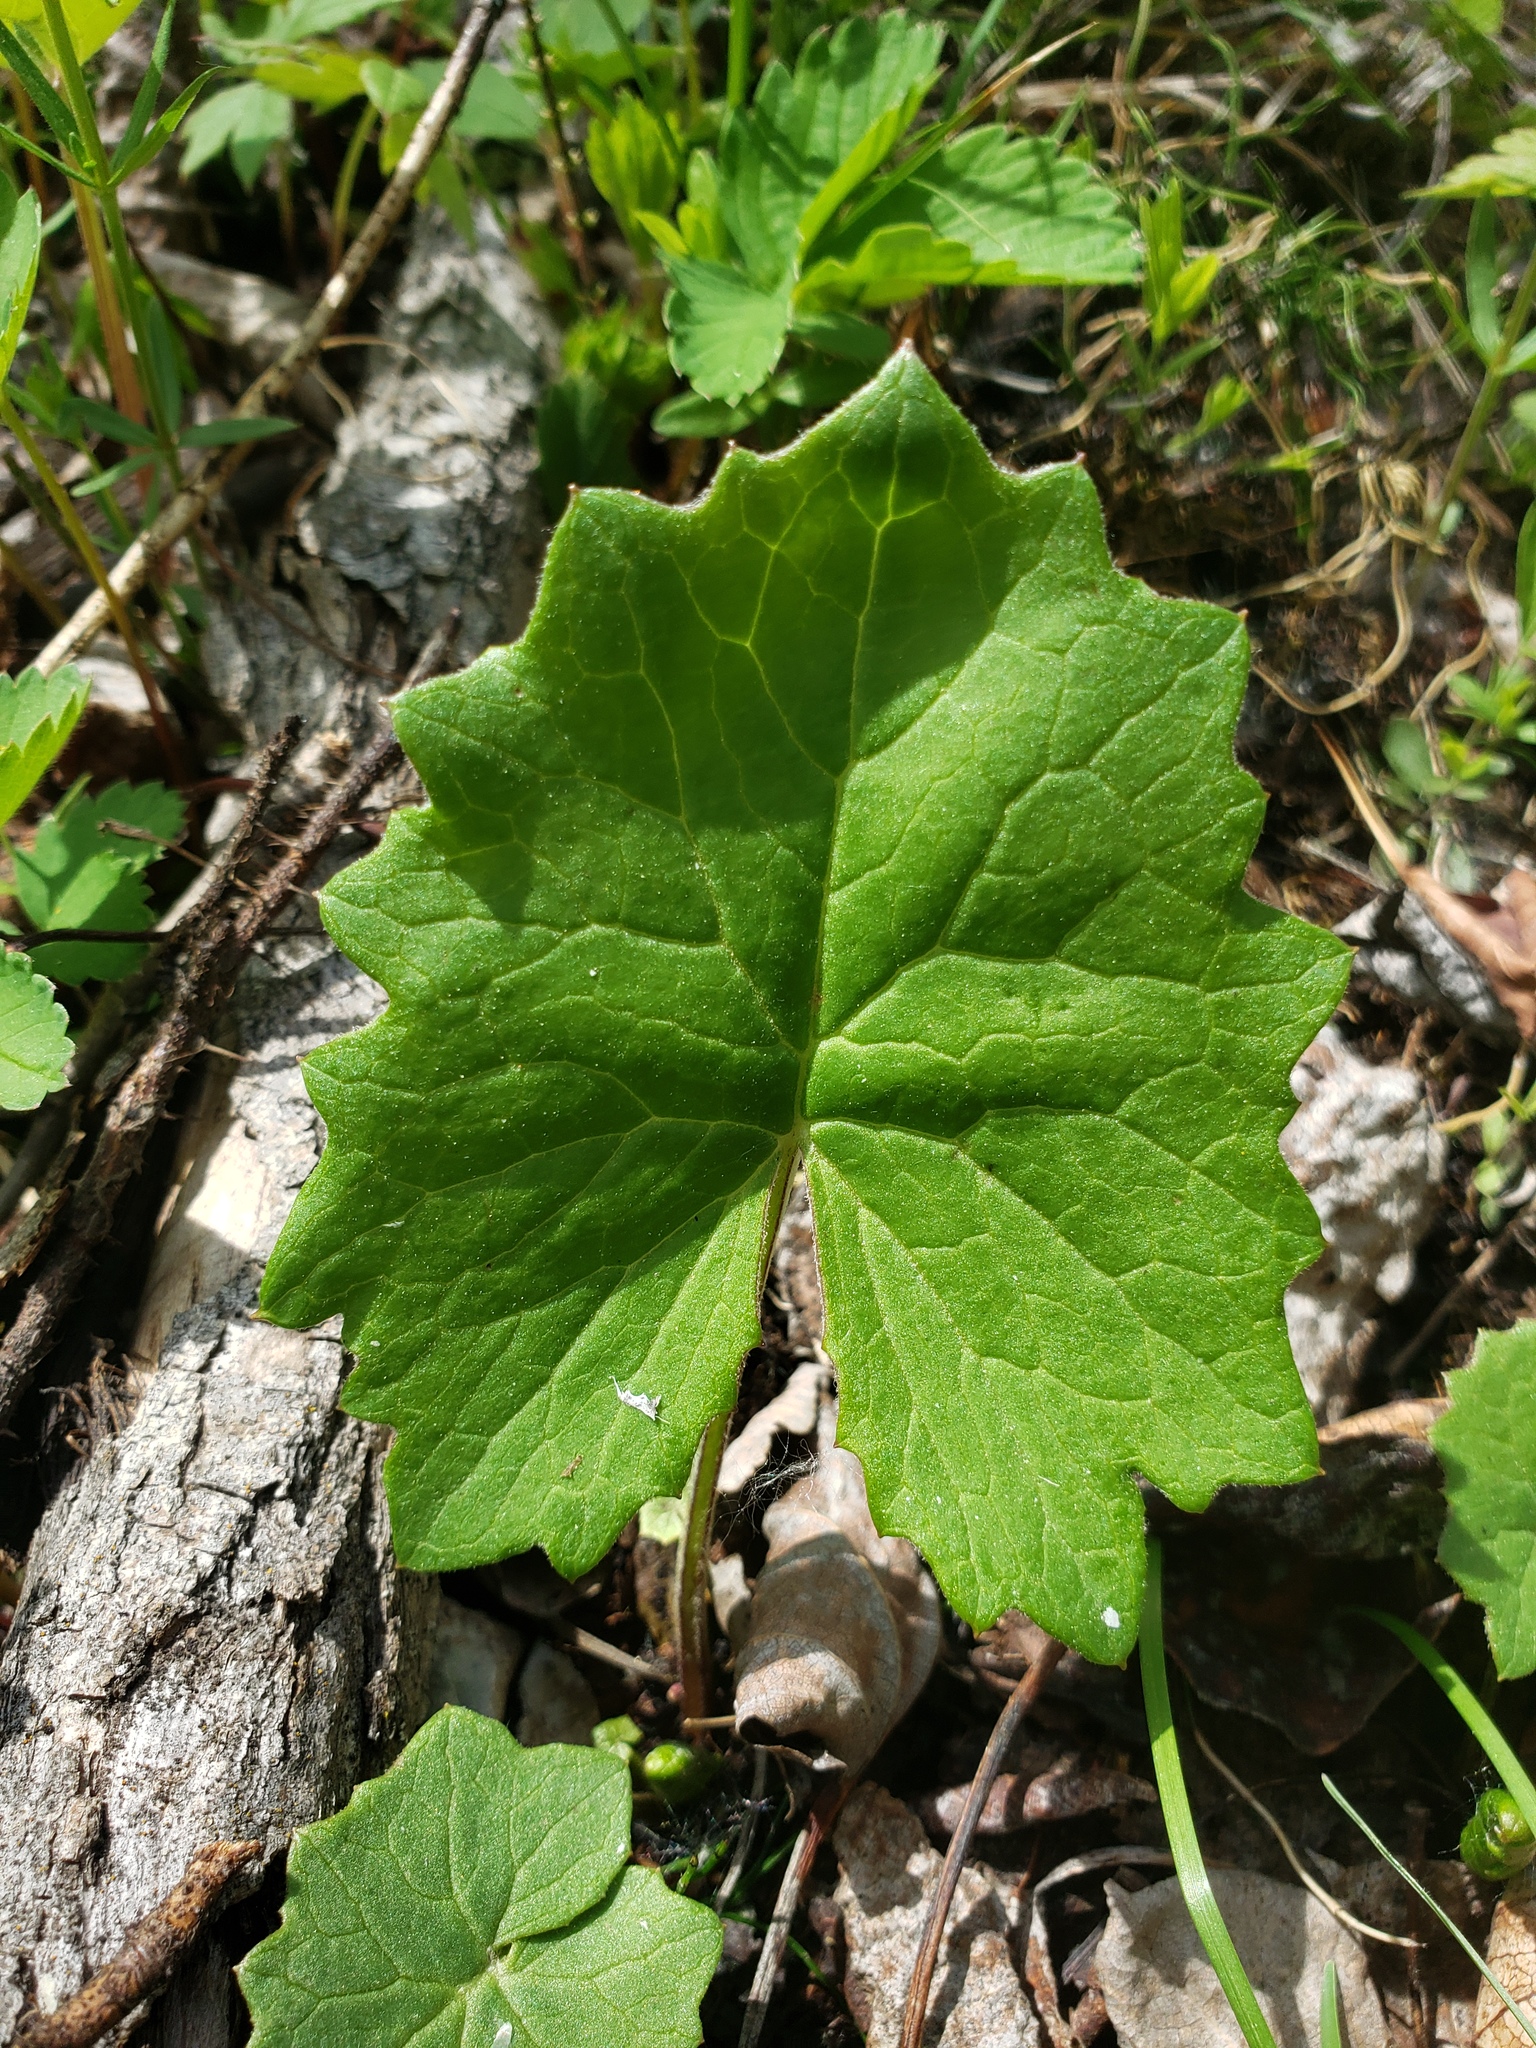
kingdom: Plantae
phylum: Tracheophyta
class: Magnoliopsida
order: Asterales
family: Asteraceae
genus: Petasites
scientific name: Petasites frigidus
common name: Arctic butterbur
